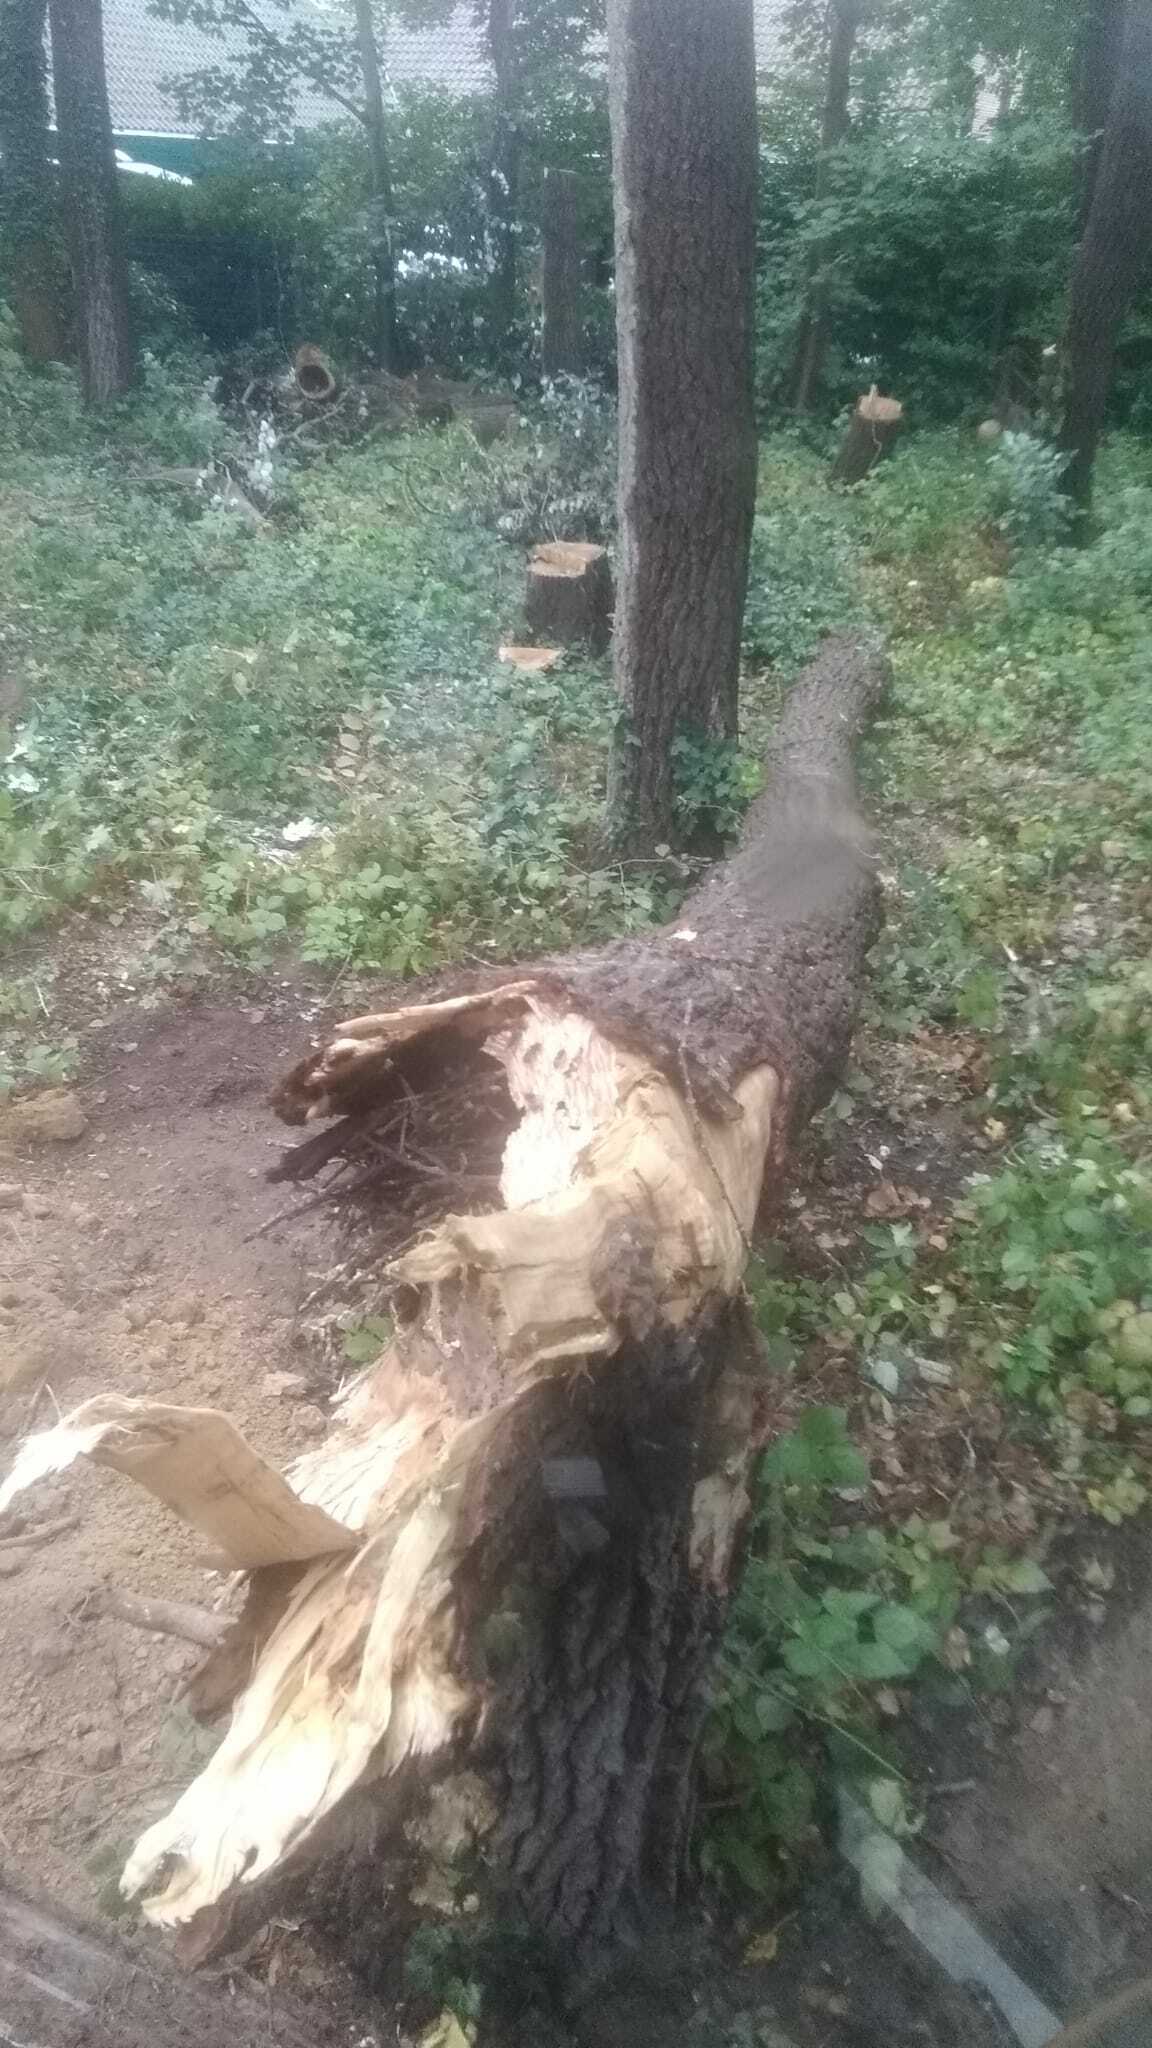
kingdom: Animalia
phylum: Arthropoda
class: Insecta
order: Hymenoptera
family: Vespidae
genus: Vespa
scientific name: Vespa crabro
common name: Hornet
